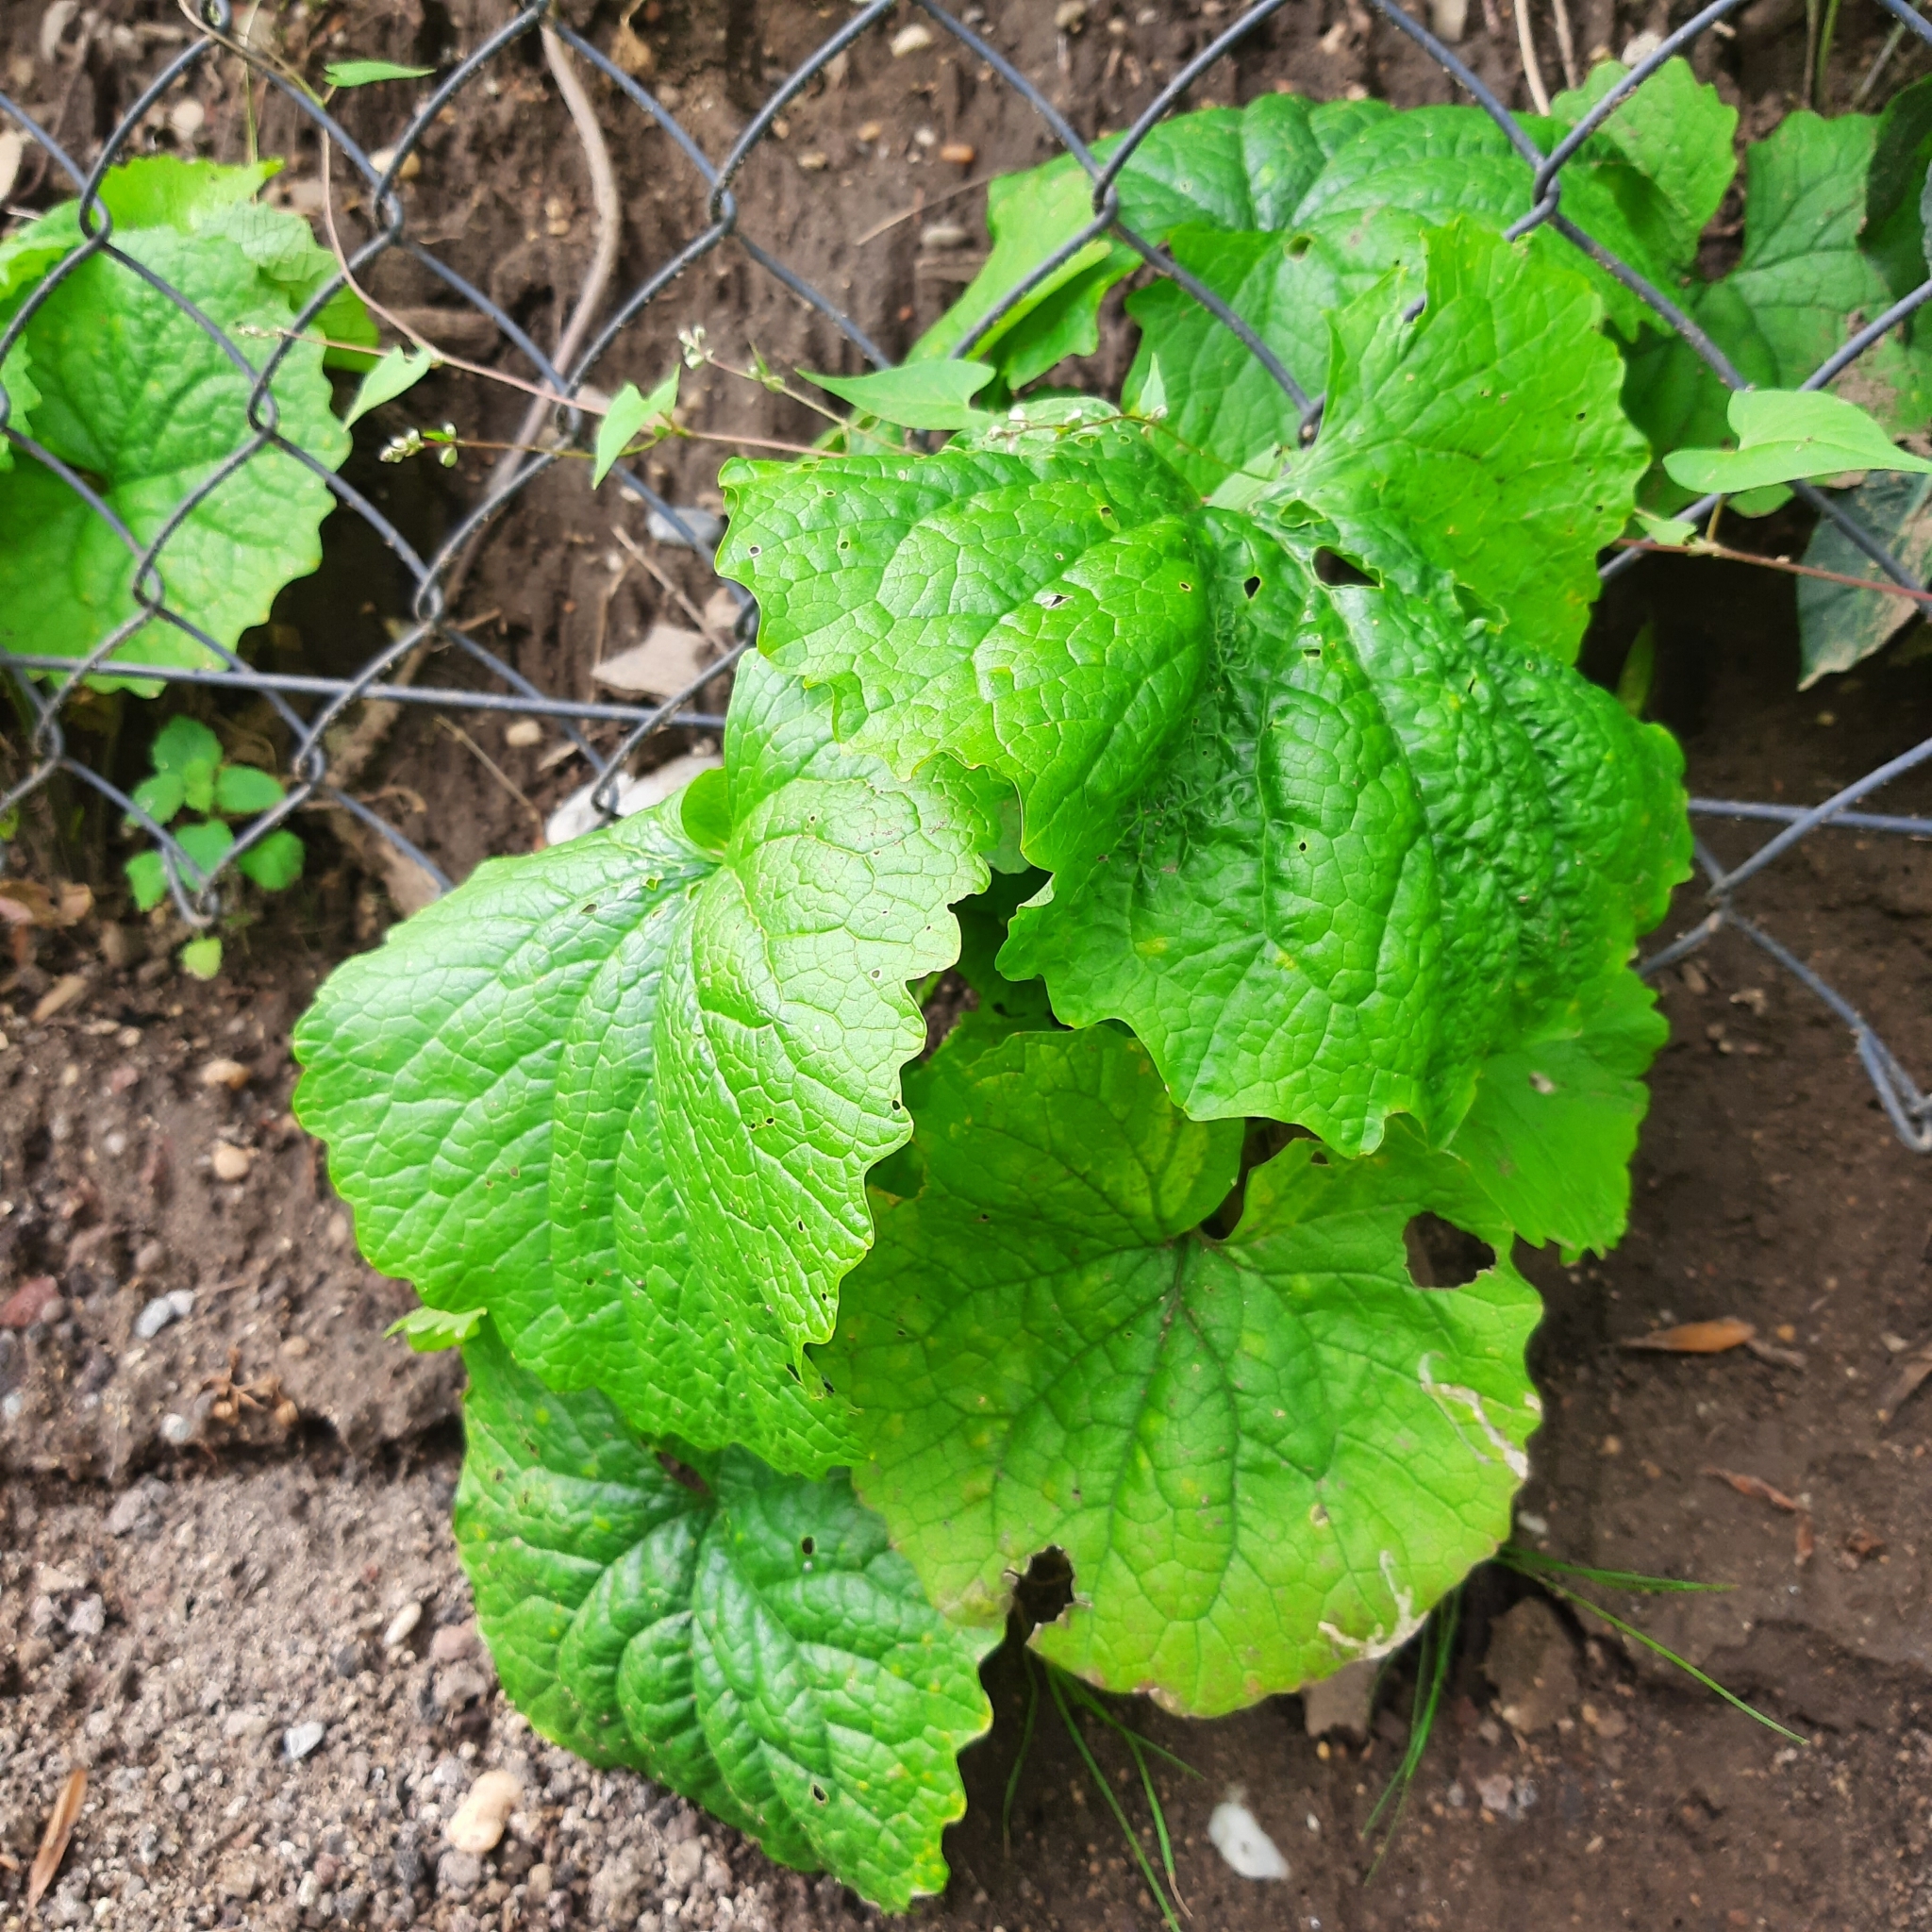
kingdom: Plantae
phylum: Tracheophyta
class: Magnoliopsida
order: Brassicales
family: Brassicaceae
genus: Alliaria
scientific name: Alliaria petiolata
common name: Garlic mustard
